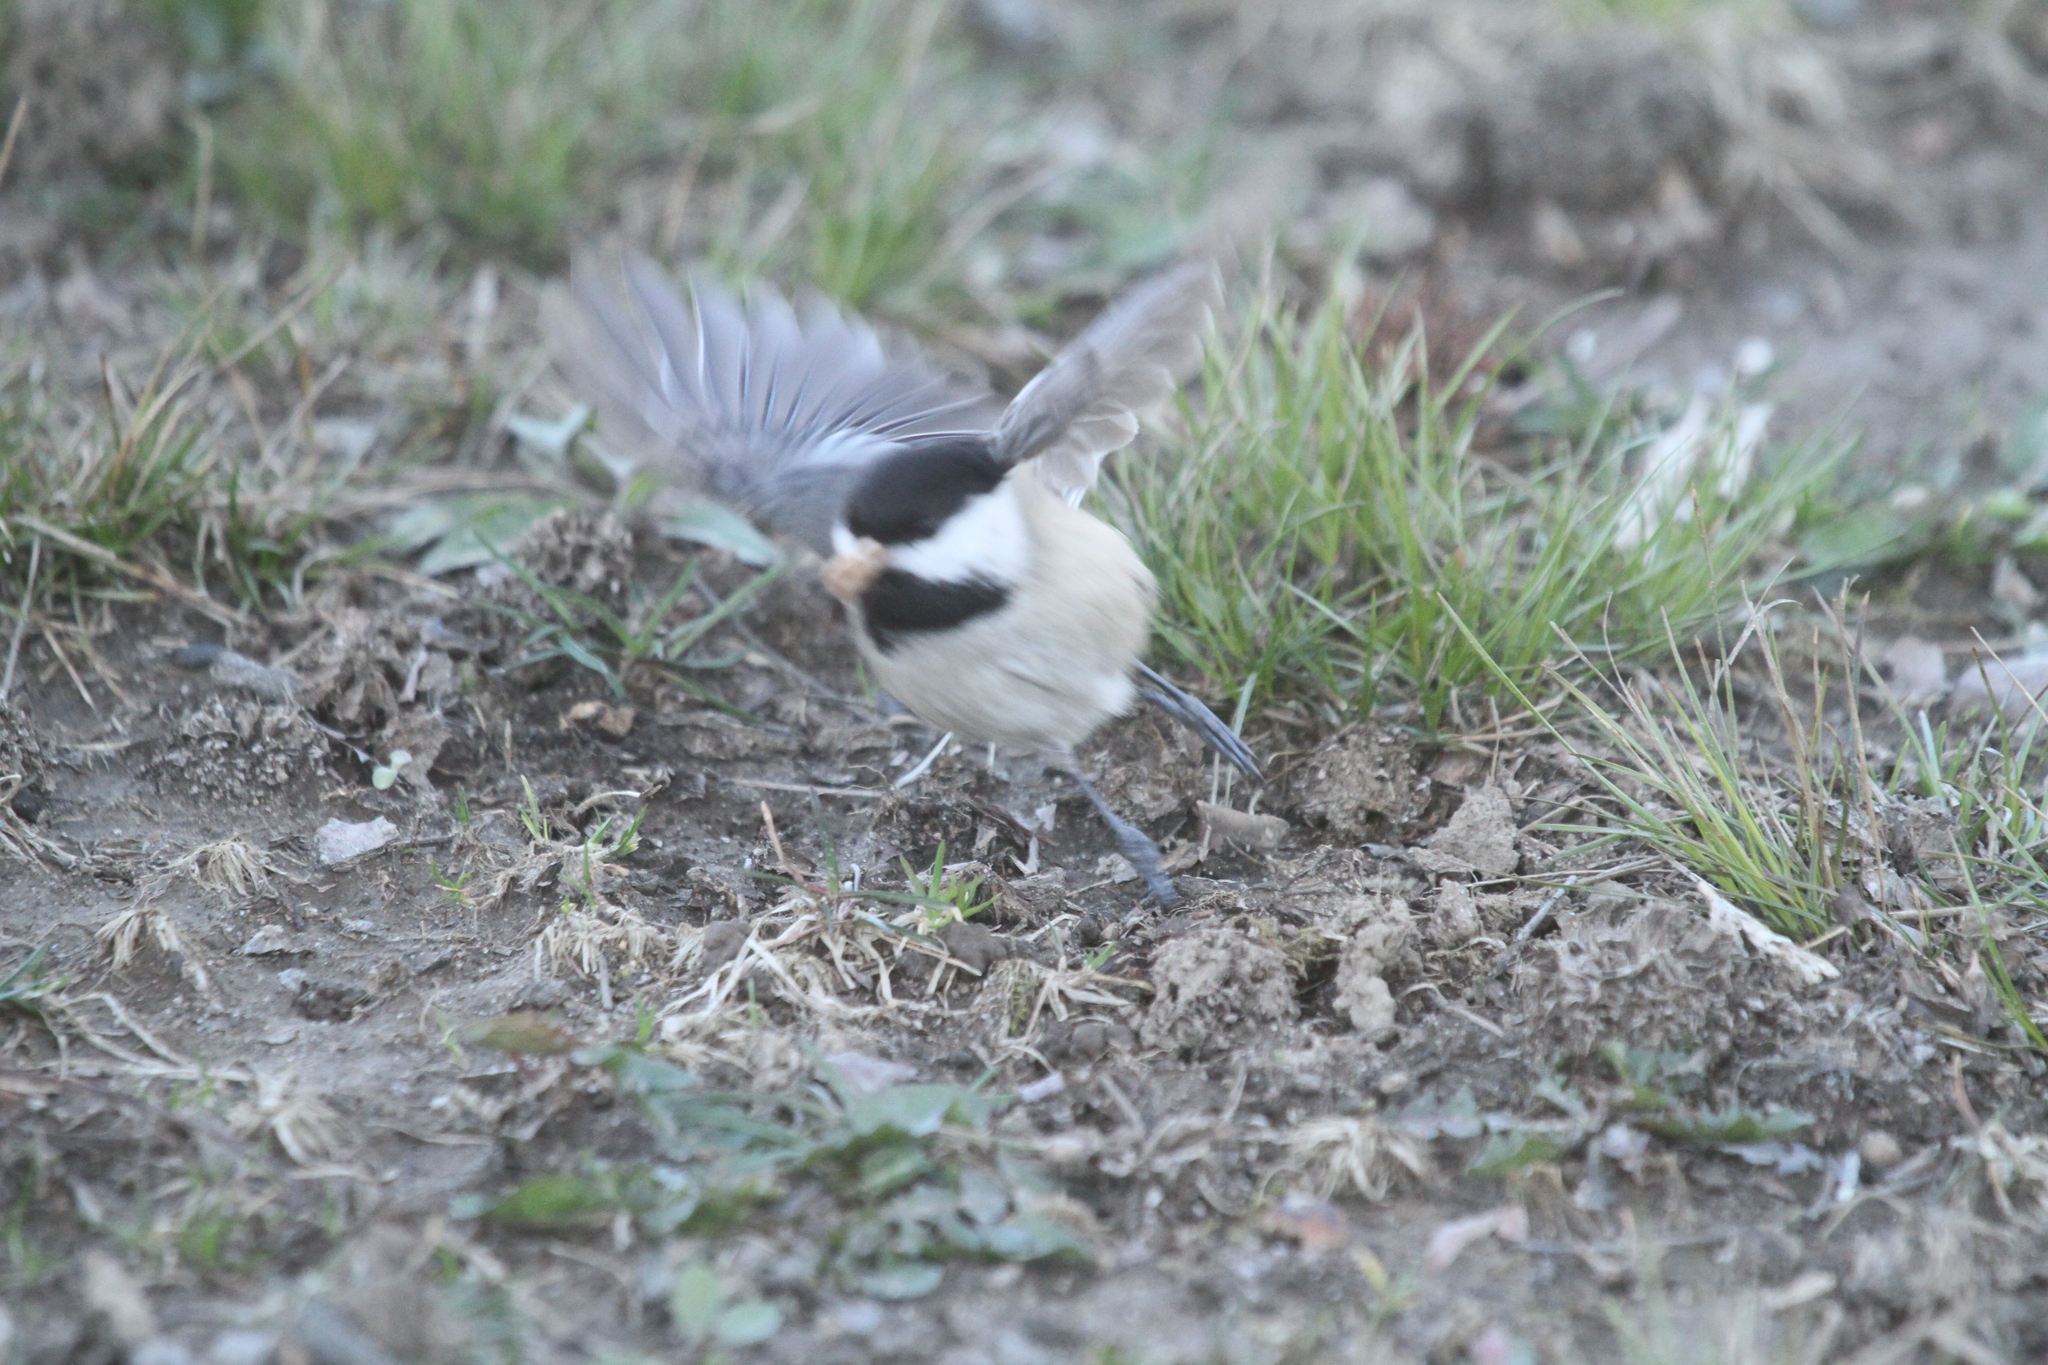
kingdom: Animalia
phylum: Chordata
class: Aves
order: Passeriformes
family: Paridae
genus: Poecile
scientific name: Poecile atricapillus
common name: Black-capped chickadee
